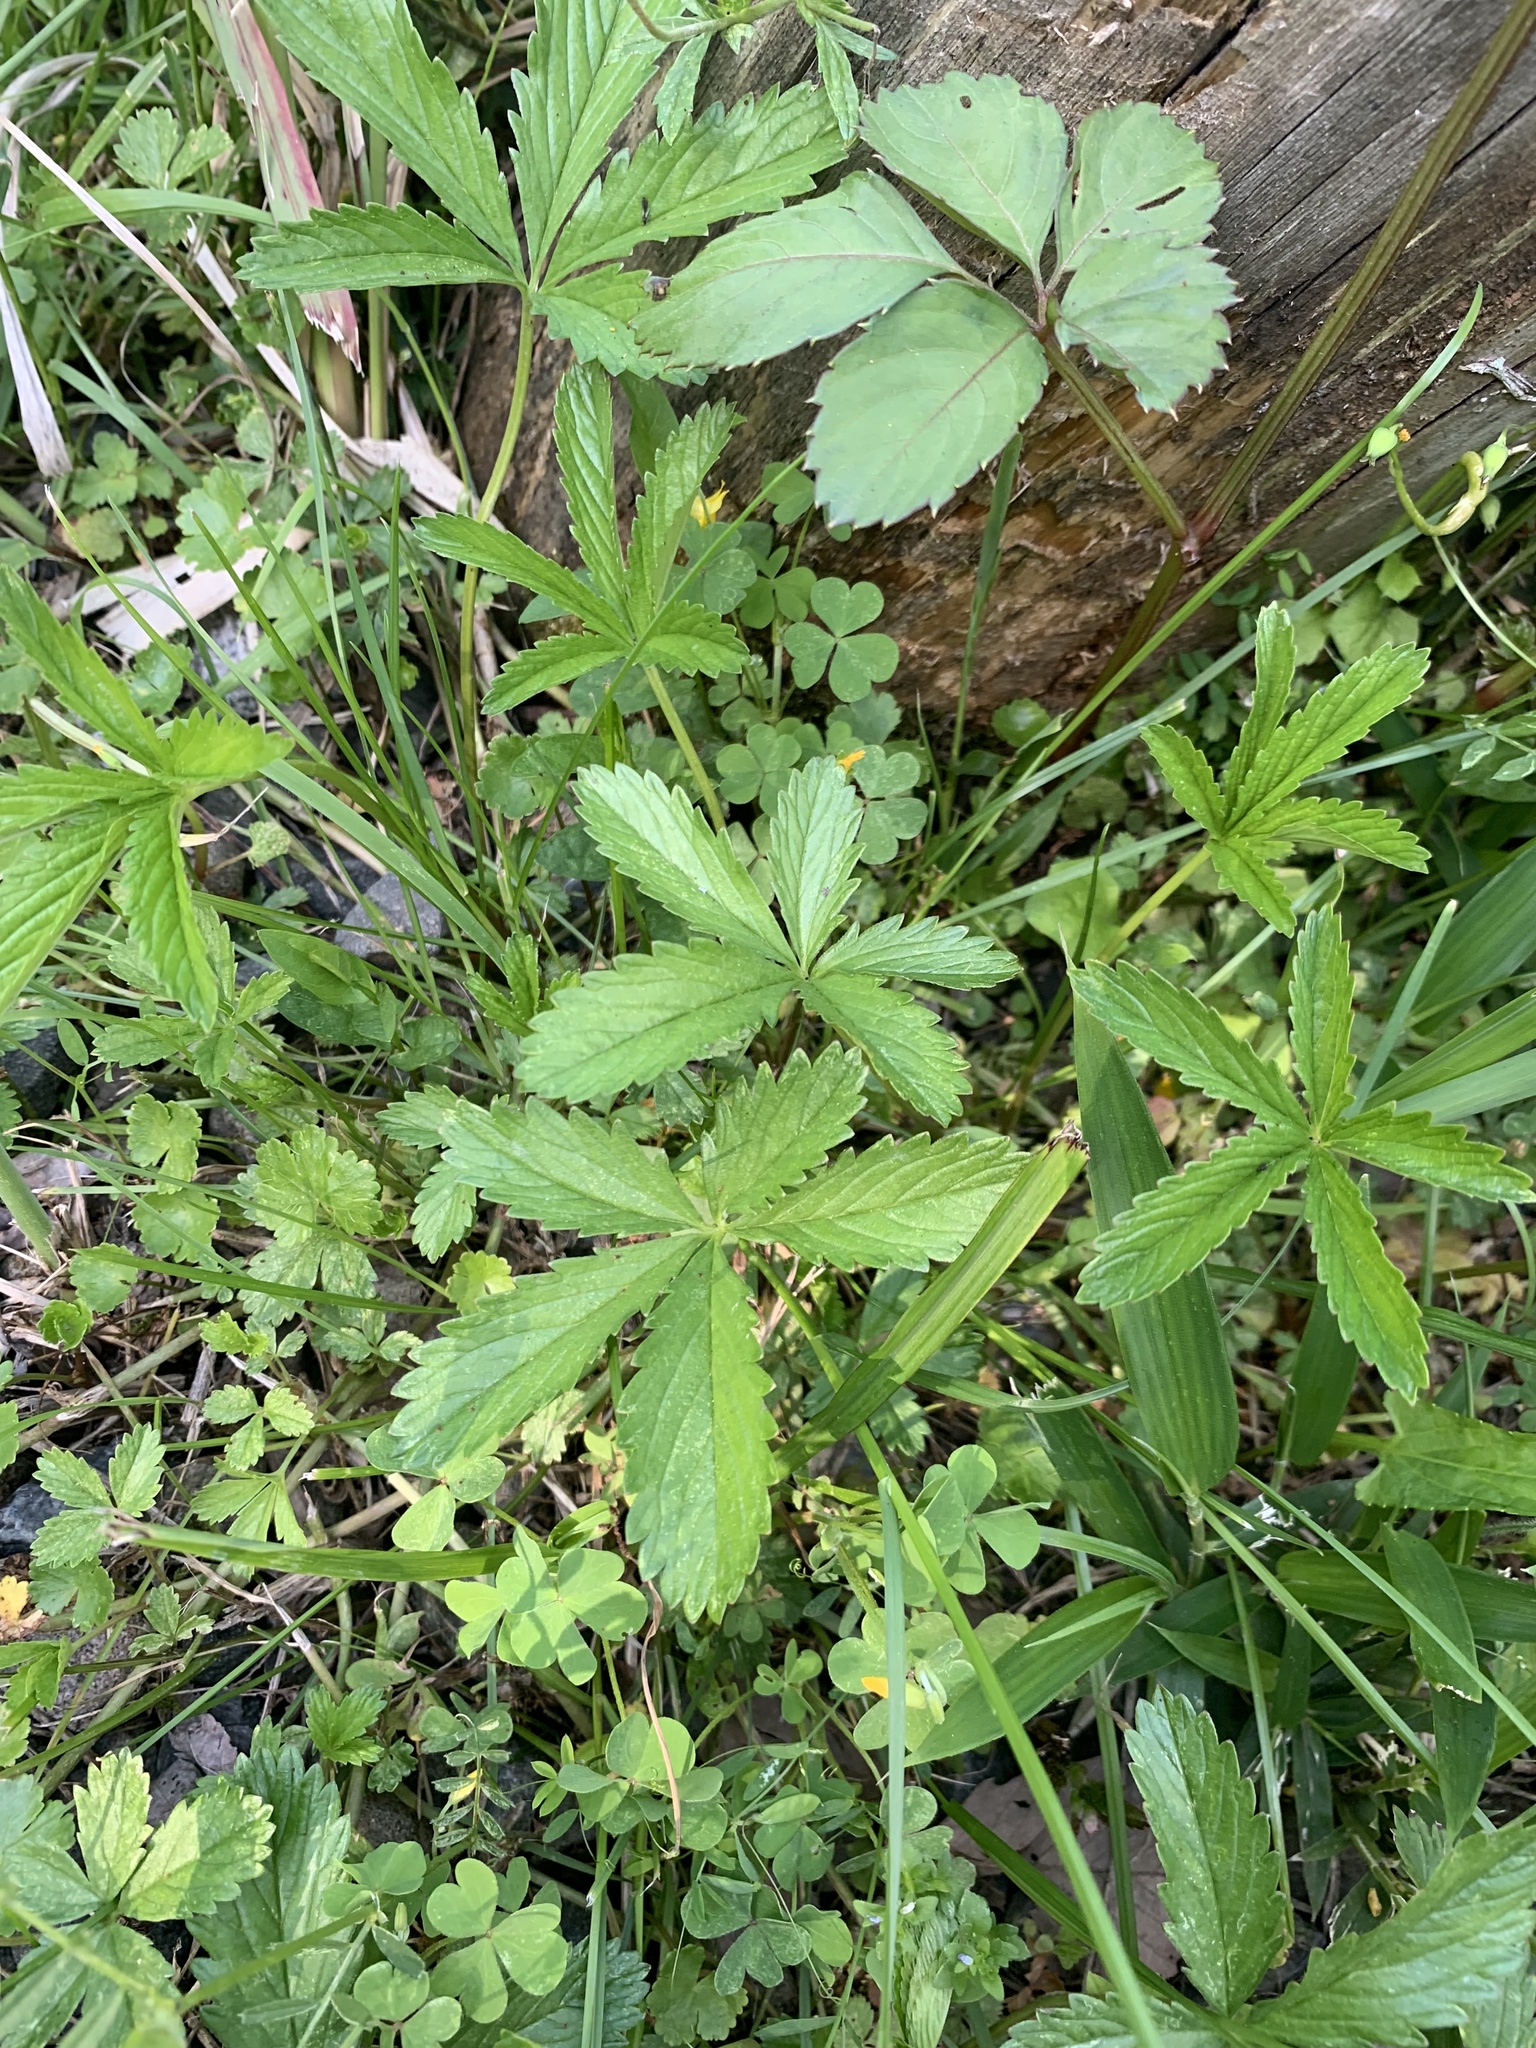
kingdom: Plantae
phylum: Tracheophyta
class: Magnoliopsida
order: Rosales
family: Rosaceae
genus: Potentilla
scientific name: Potentilla sundaica
